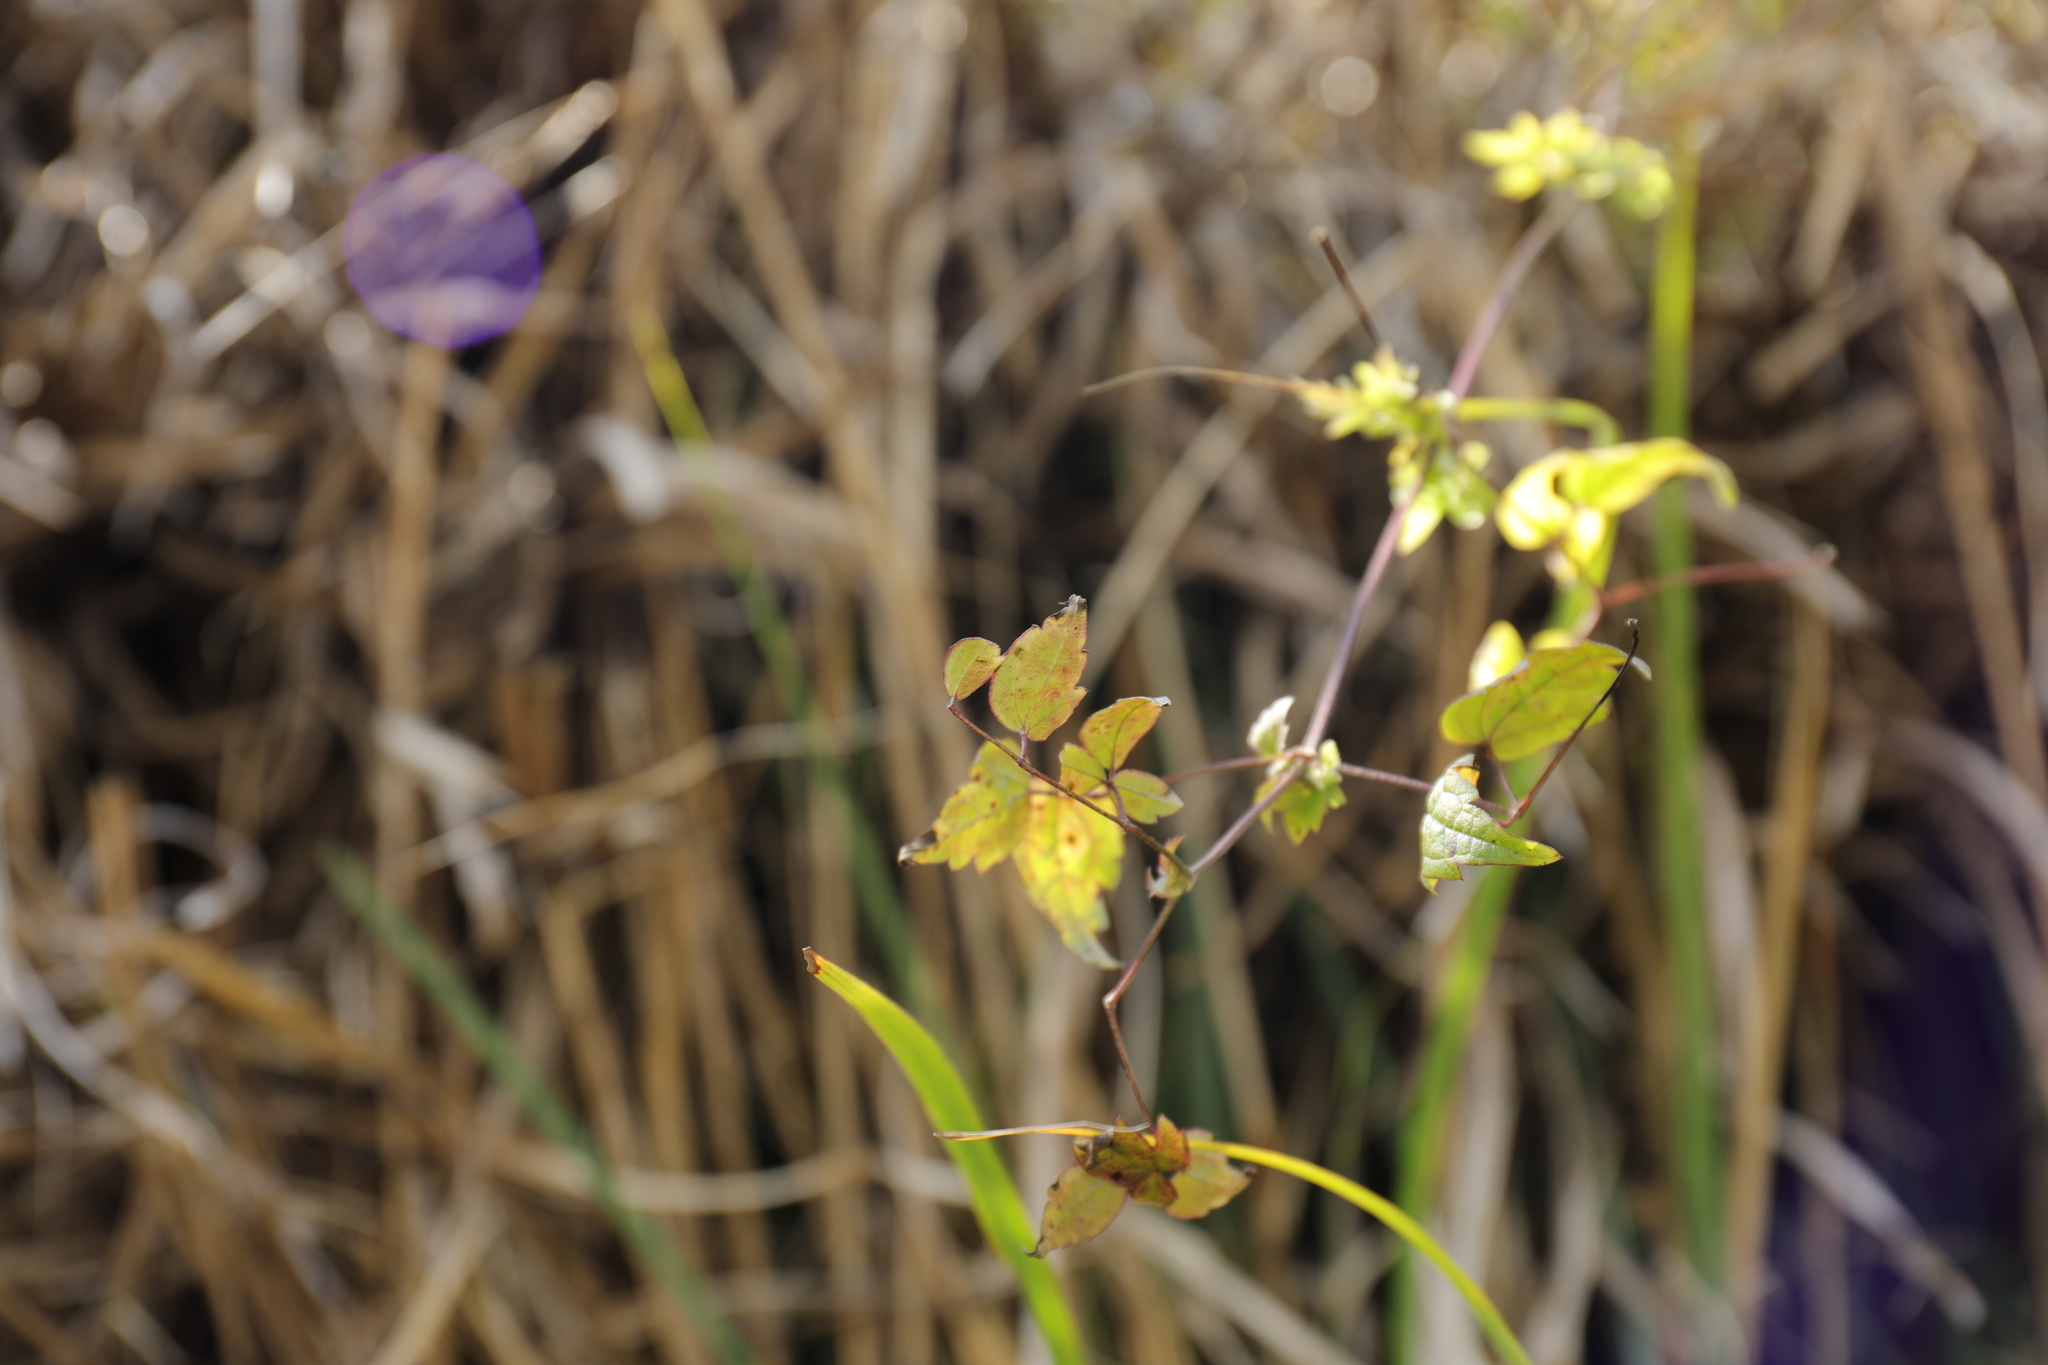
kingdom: Plantae
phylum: Tracheophyta
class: Magnoliopsida
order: Ranunculales
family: Ranunculaceae
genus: Clematis
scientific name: Clematis lishanensis
